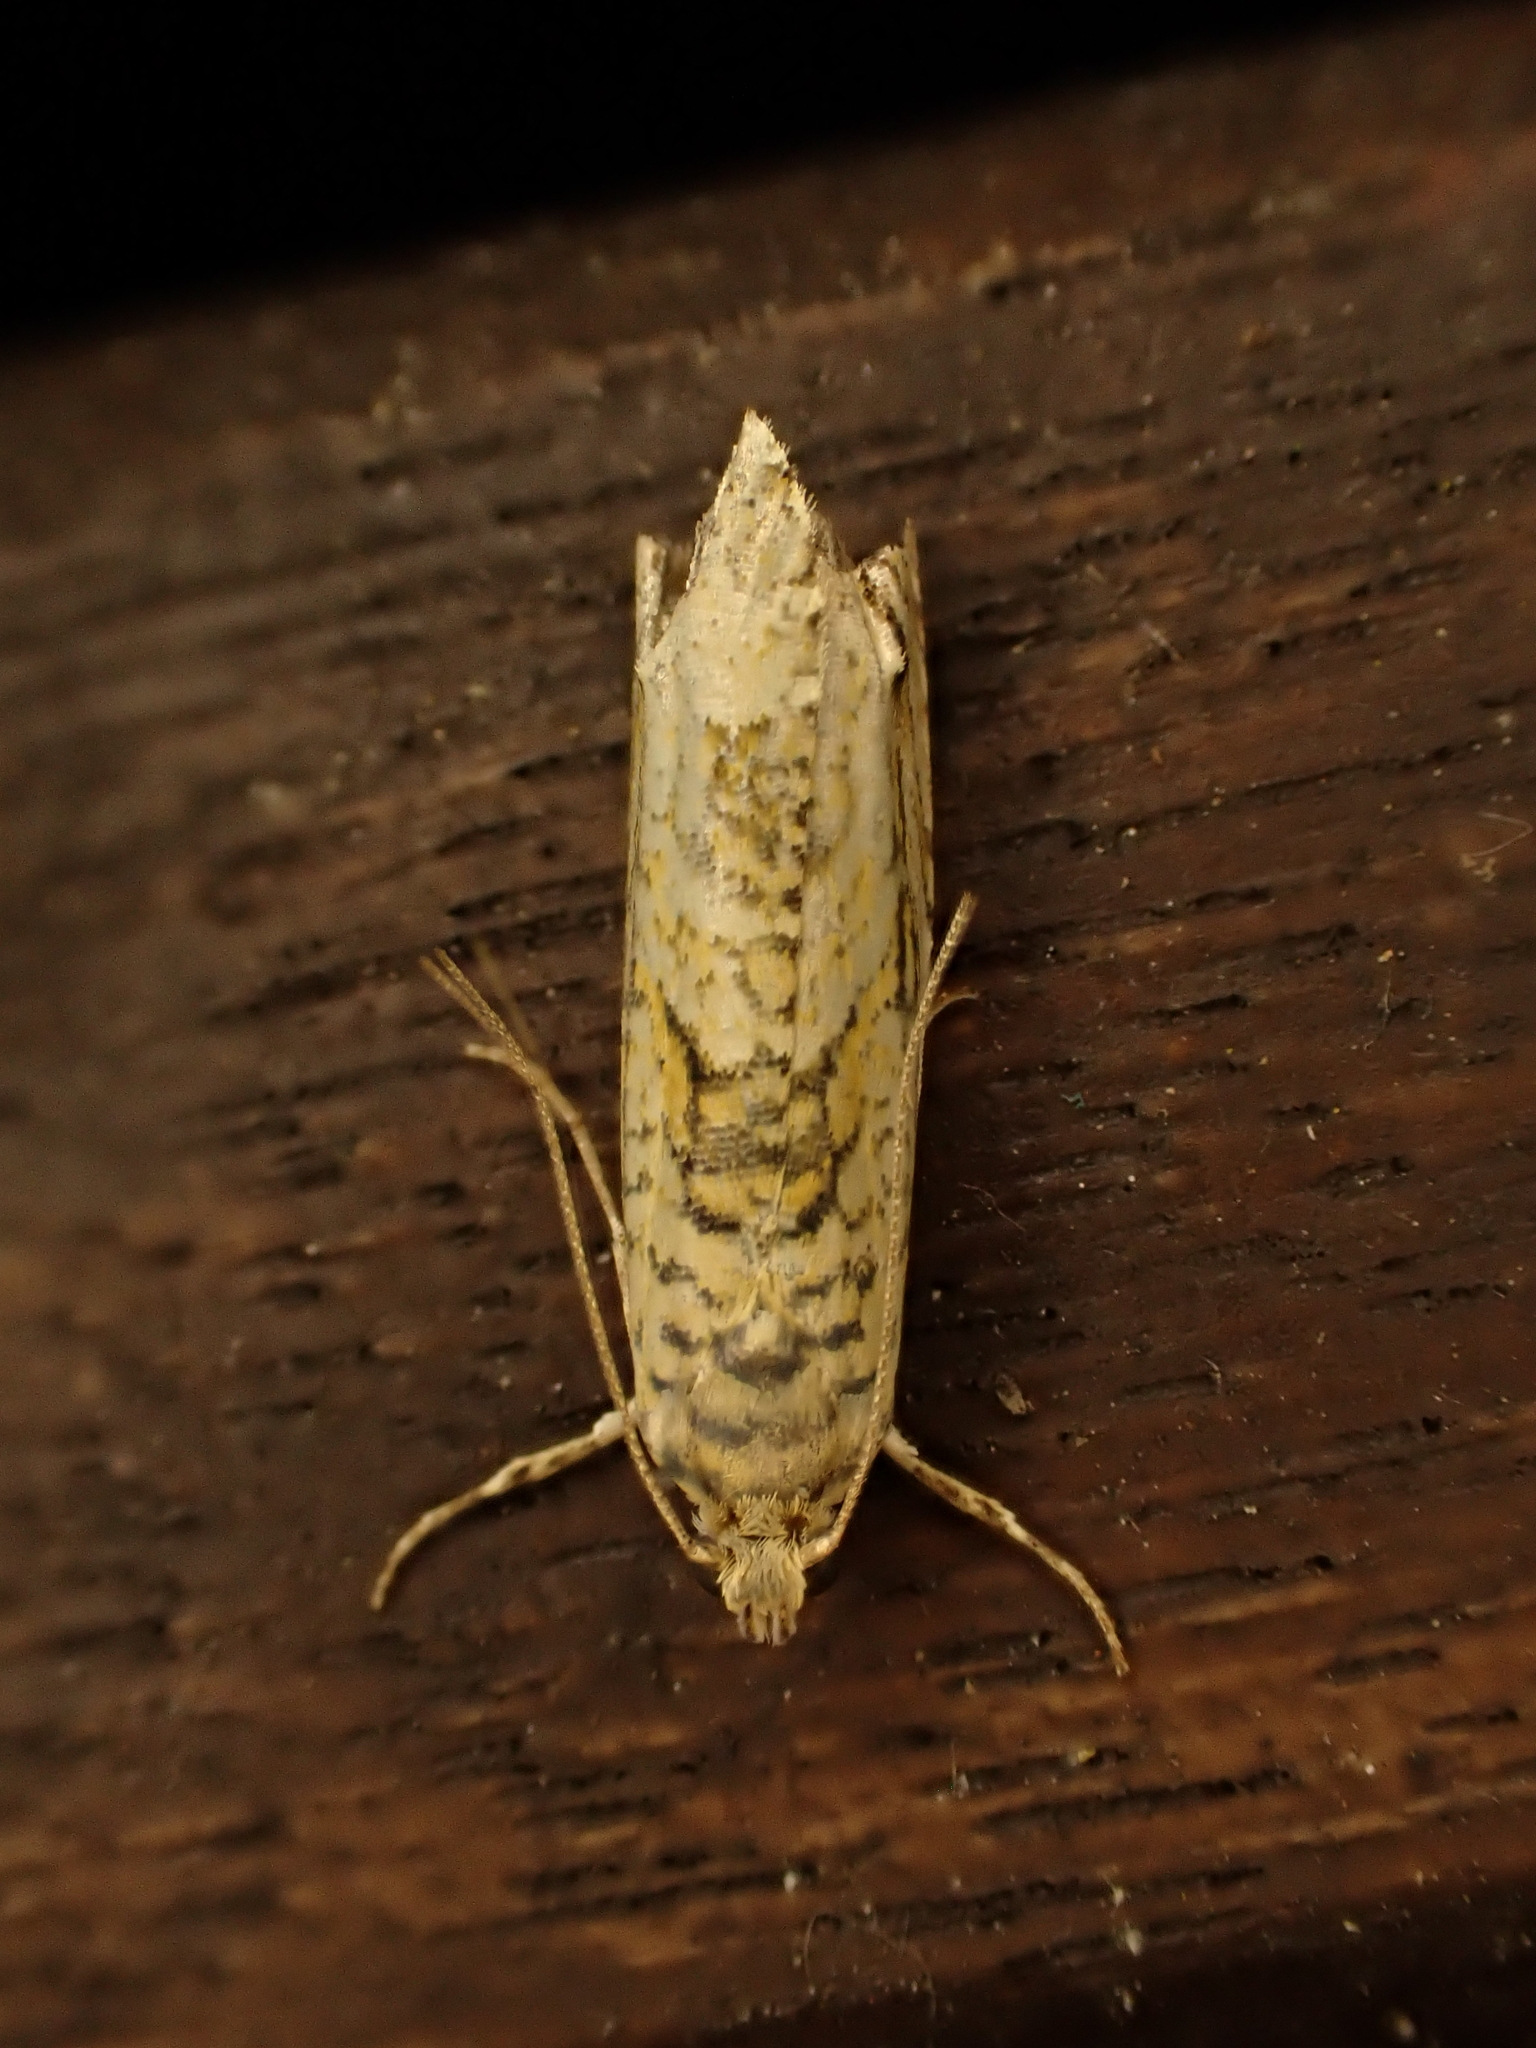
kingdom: Animalia
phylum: Arthropoda
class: Insecta
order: Lepidoptera
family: Plutellidae
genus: Doxophyrtis
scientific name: Doxophyrtis hydrocosma
